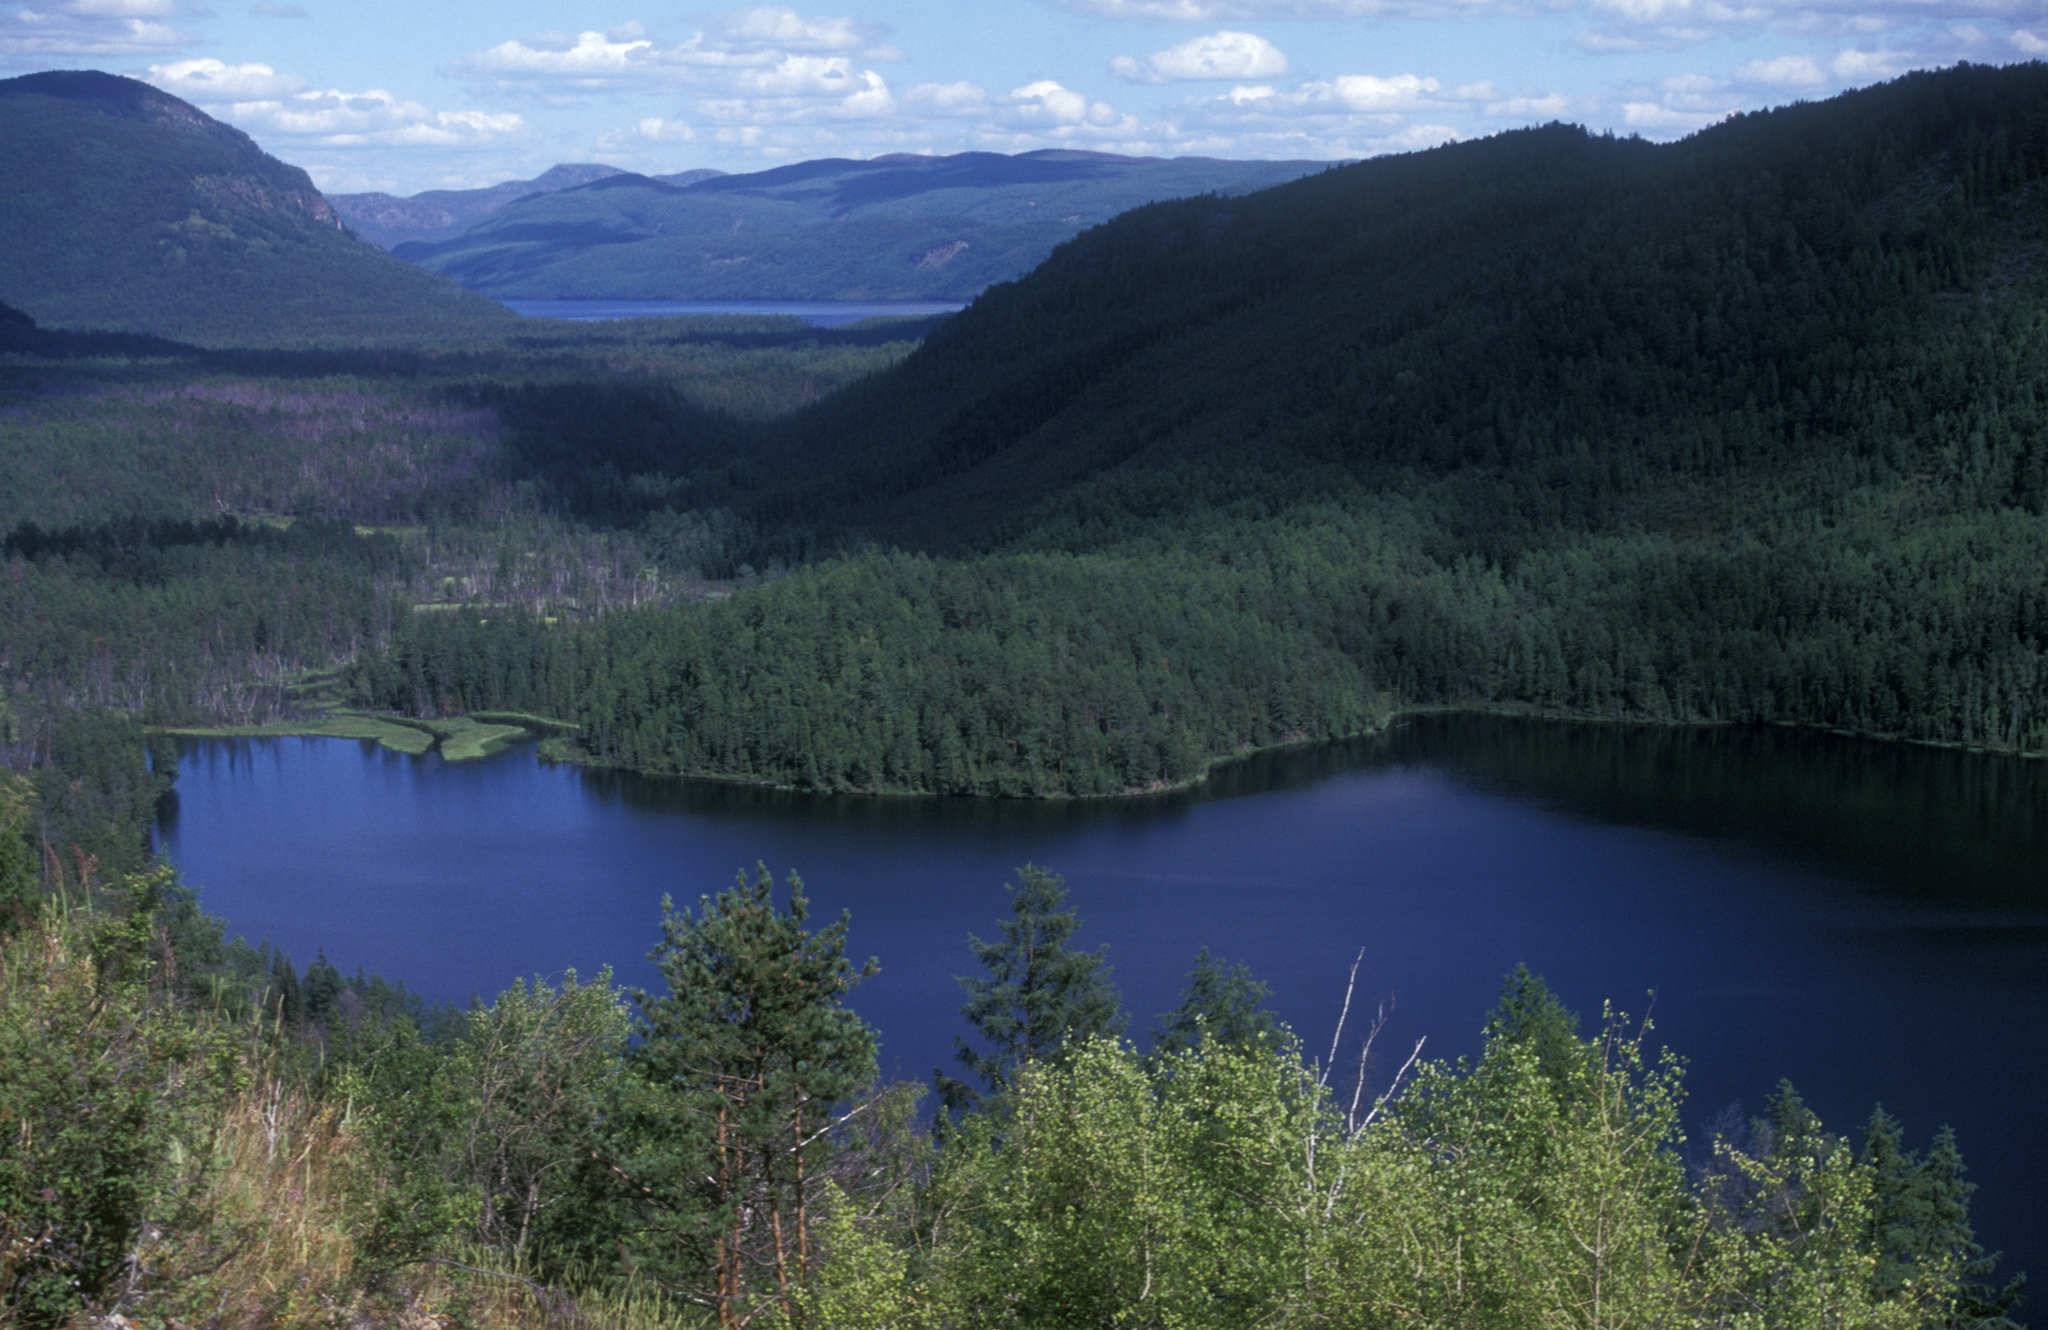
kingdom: Plantae
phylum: Tracheophyta
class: Magnoliopsida
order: Malpighiales
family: Salicaceae
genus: Populus
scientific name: Populus tremula
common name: European aspen
